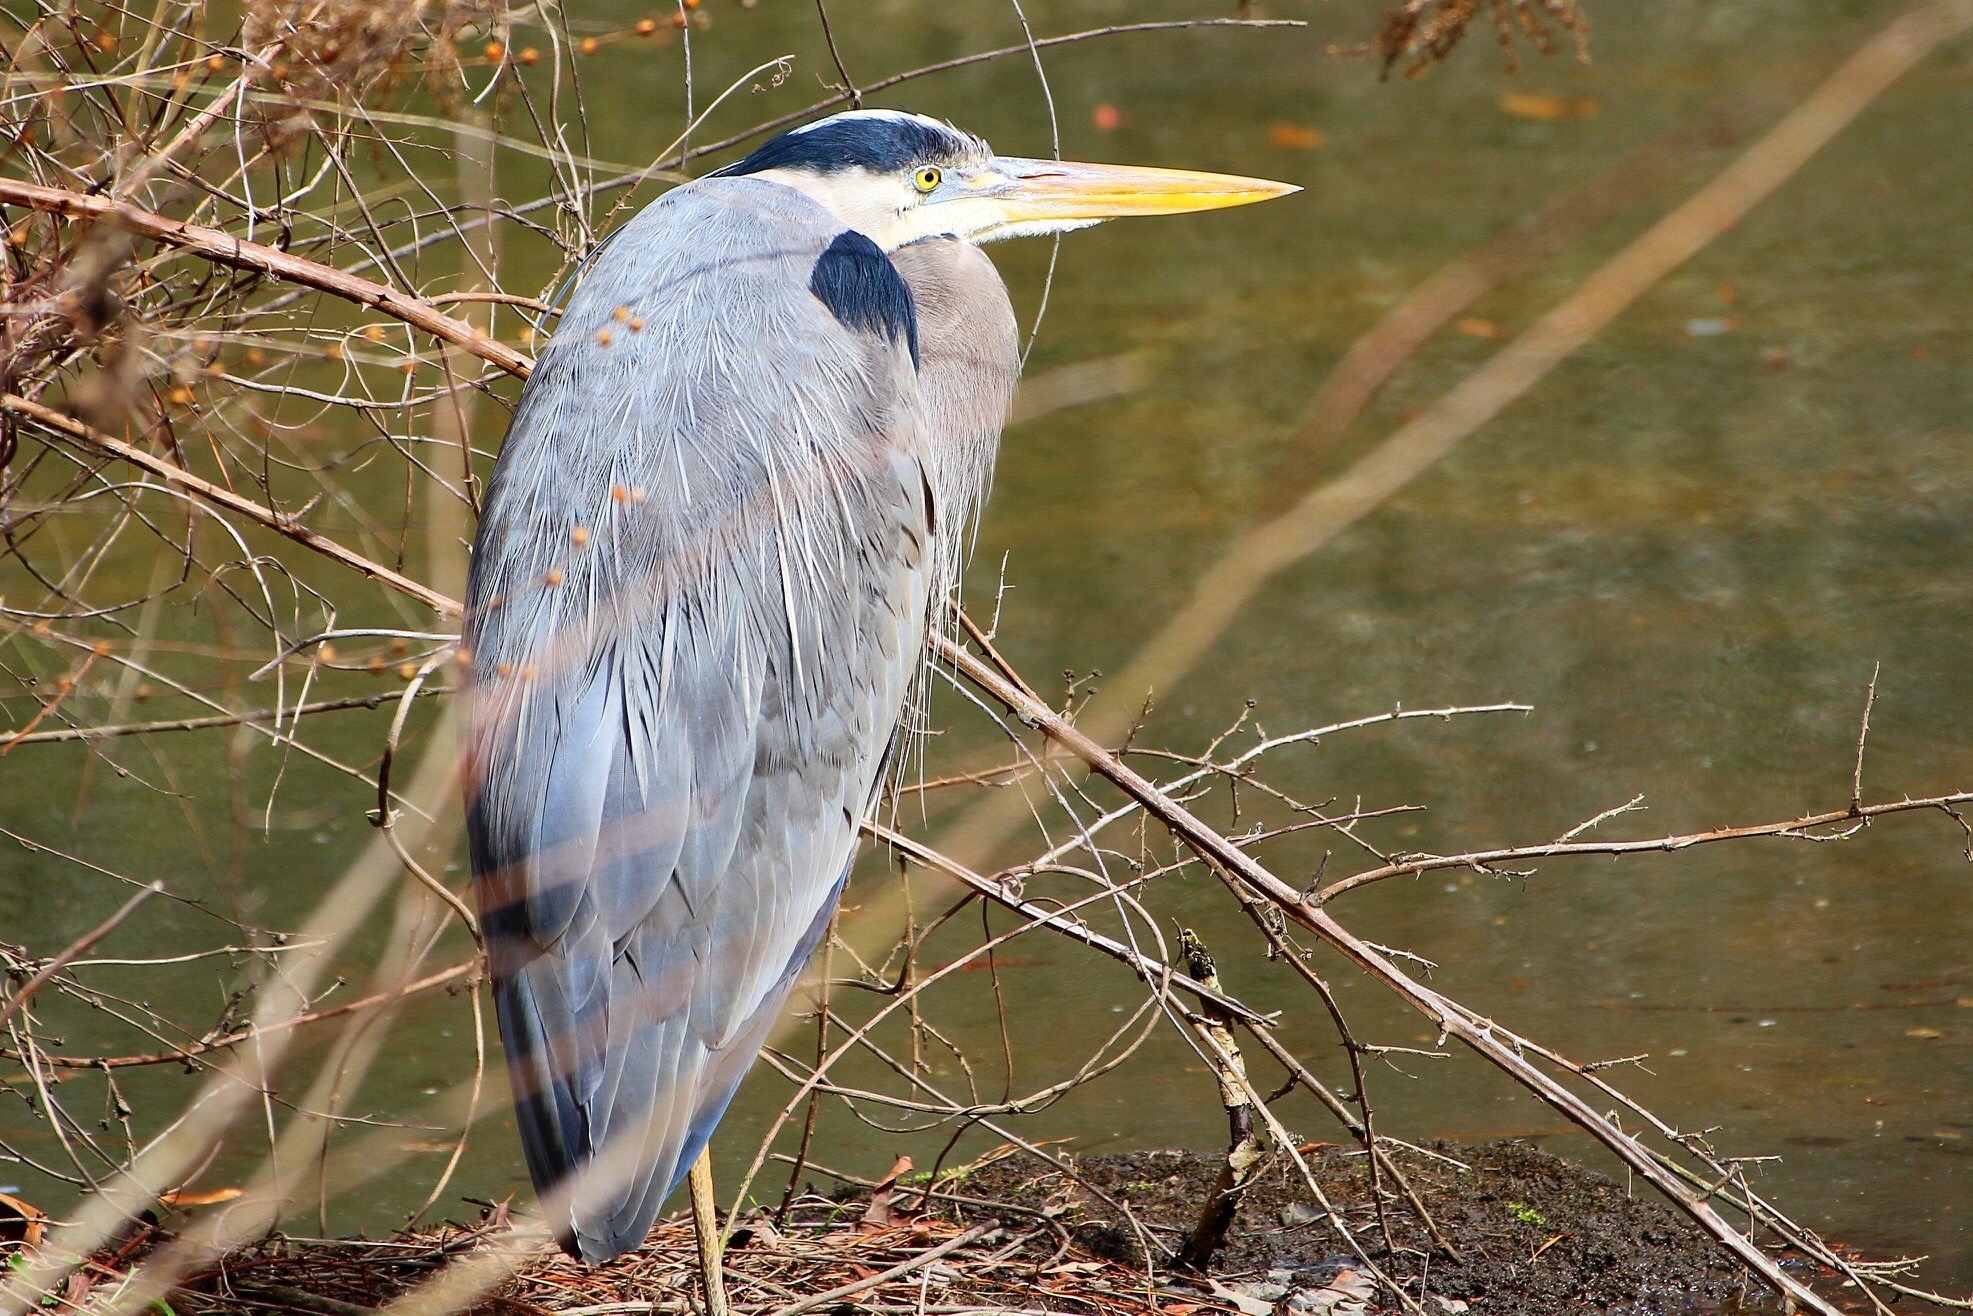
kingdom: Animalia
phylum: Chordata
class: Aves
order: Pelecaniformes
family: Ardeidae
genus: Ardea
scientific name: Ardea herodias
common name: Great blue heron
